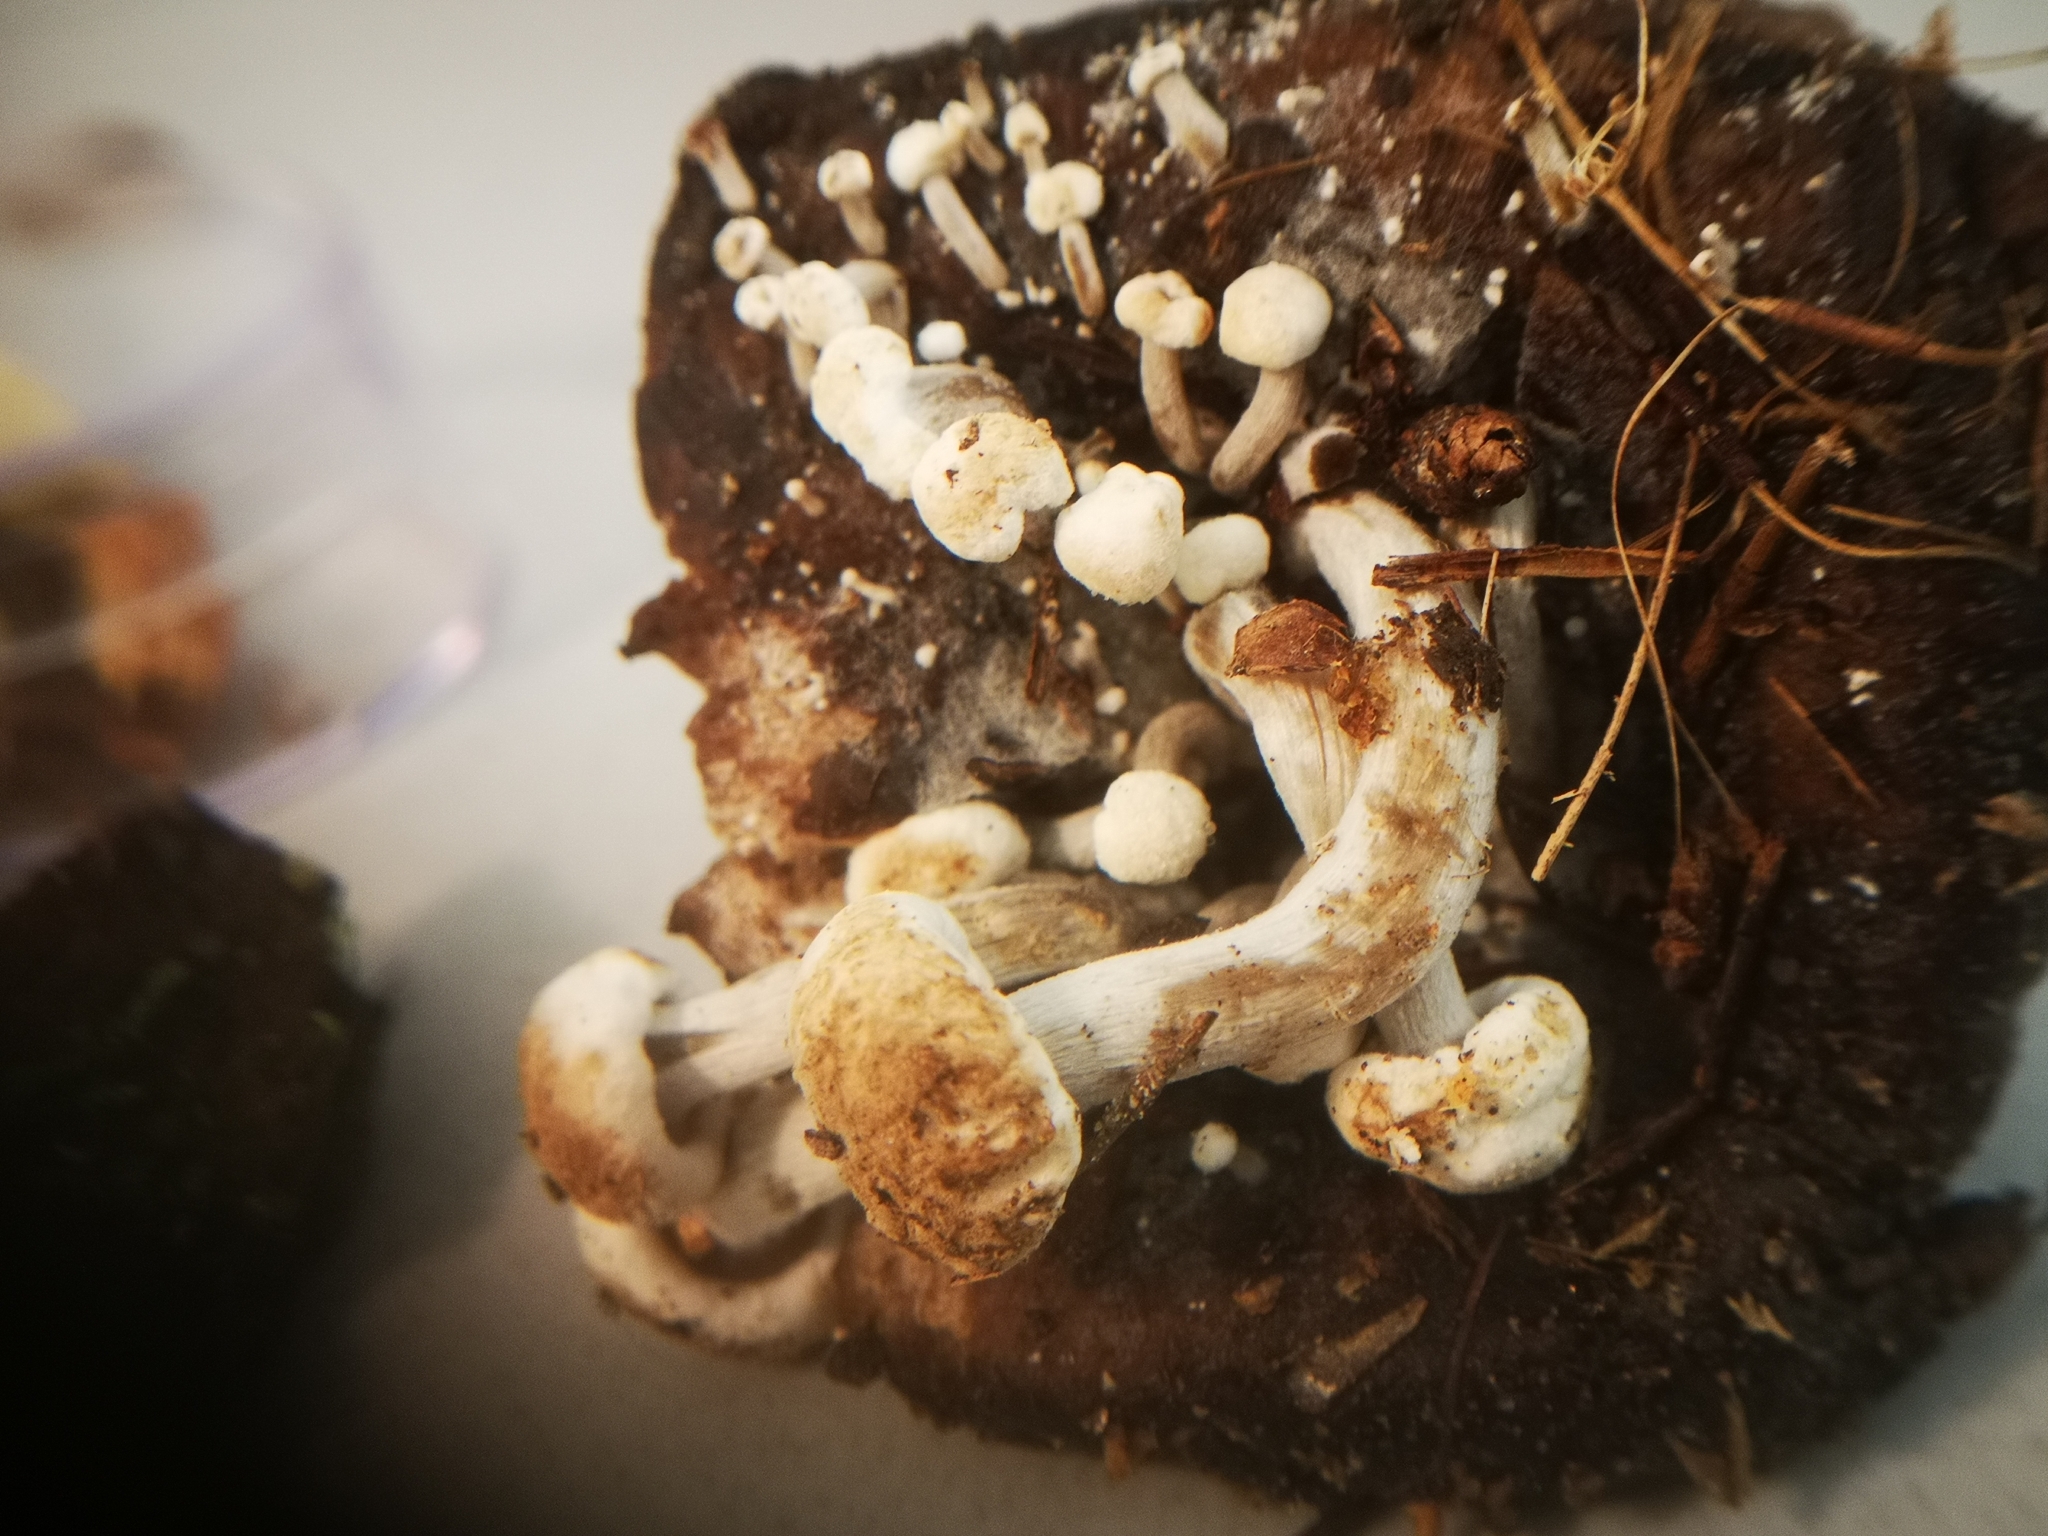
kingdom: Fungi
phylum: Basidiomycota
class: Agaricomycetes
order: Agaricales
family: Lyophyllaceae
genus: Asterophora
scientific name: Asterophora lycoperdoides
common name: Pick-a-back toadstool
